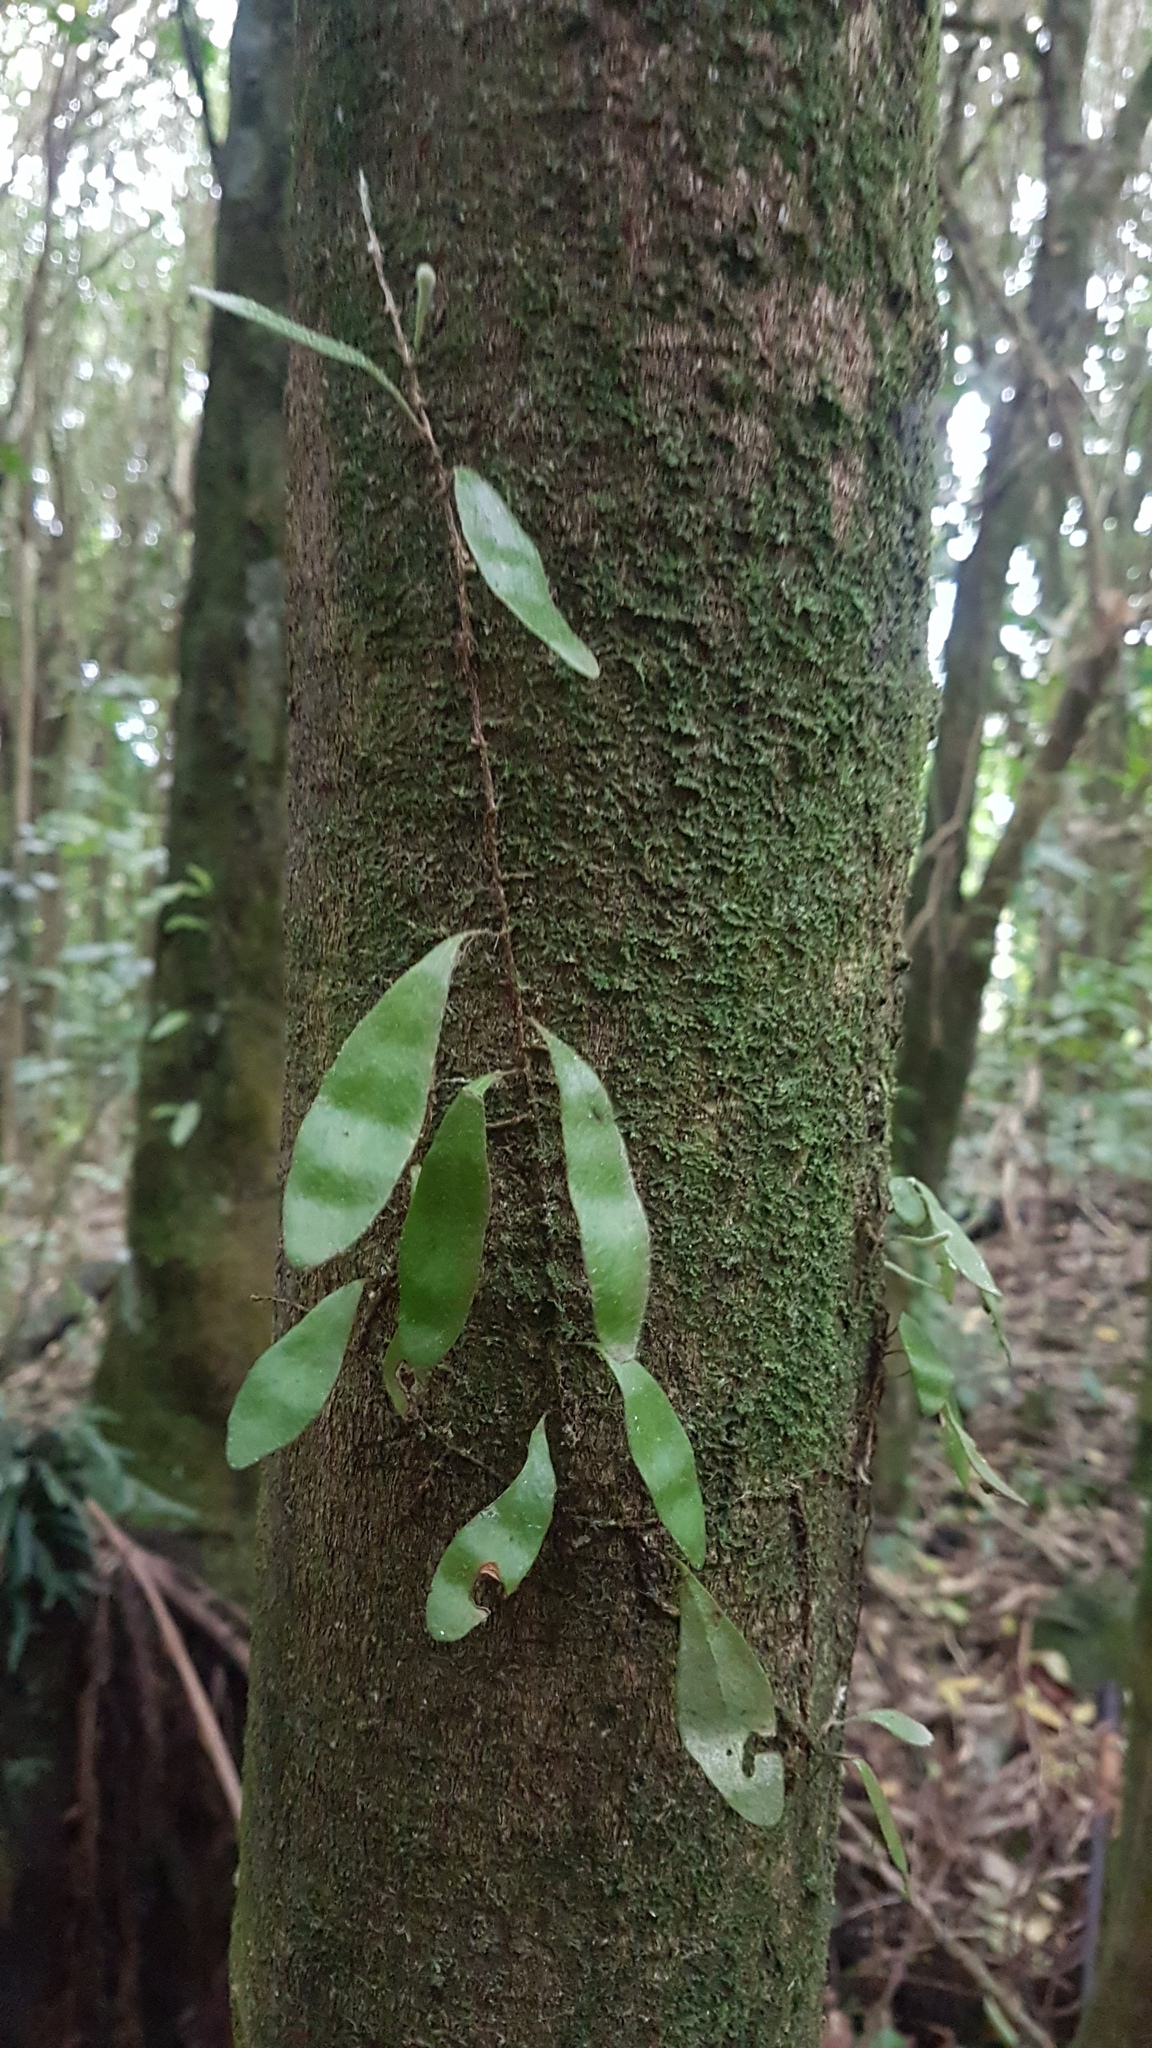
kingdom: Plantae
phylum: Tracheophyta
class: Polypodiopsida
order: Polypodiales
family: Polypodiaceae
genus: Pyrrosia
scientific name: Pyrrosia eleagnifolia
